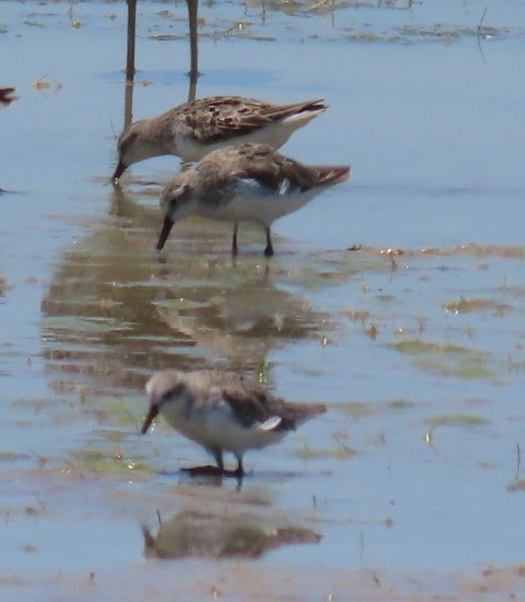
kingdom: Animalia
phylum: Chordata
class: Aves
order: Charadriiformes
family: Scolopacidae
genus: Calidris
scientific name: Calidris pusilla
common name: Semipalmated sandpiper
